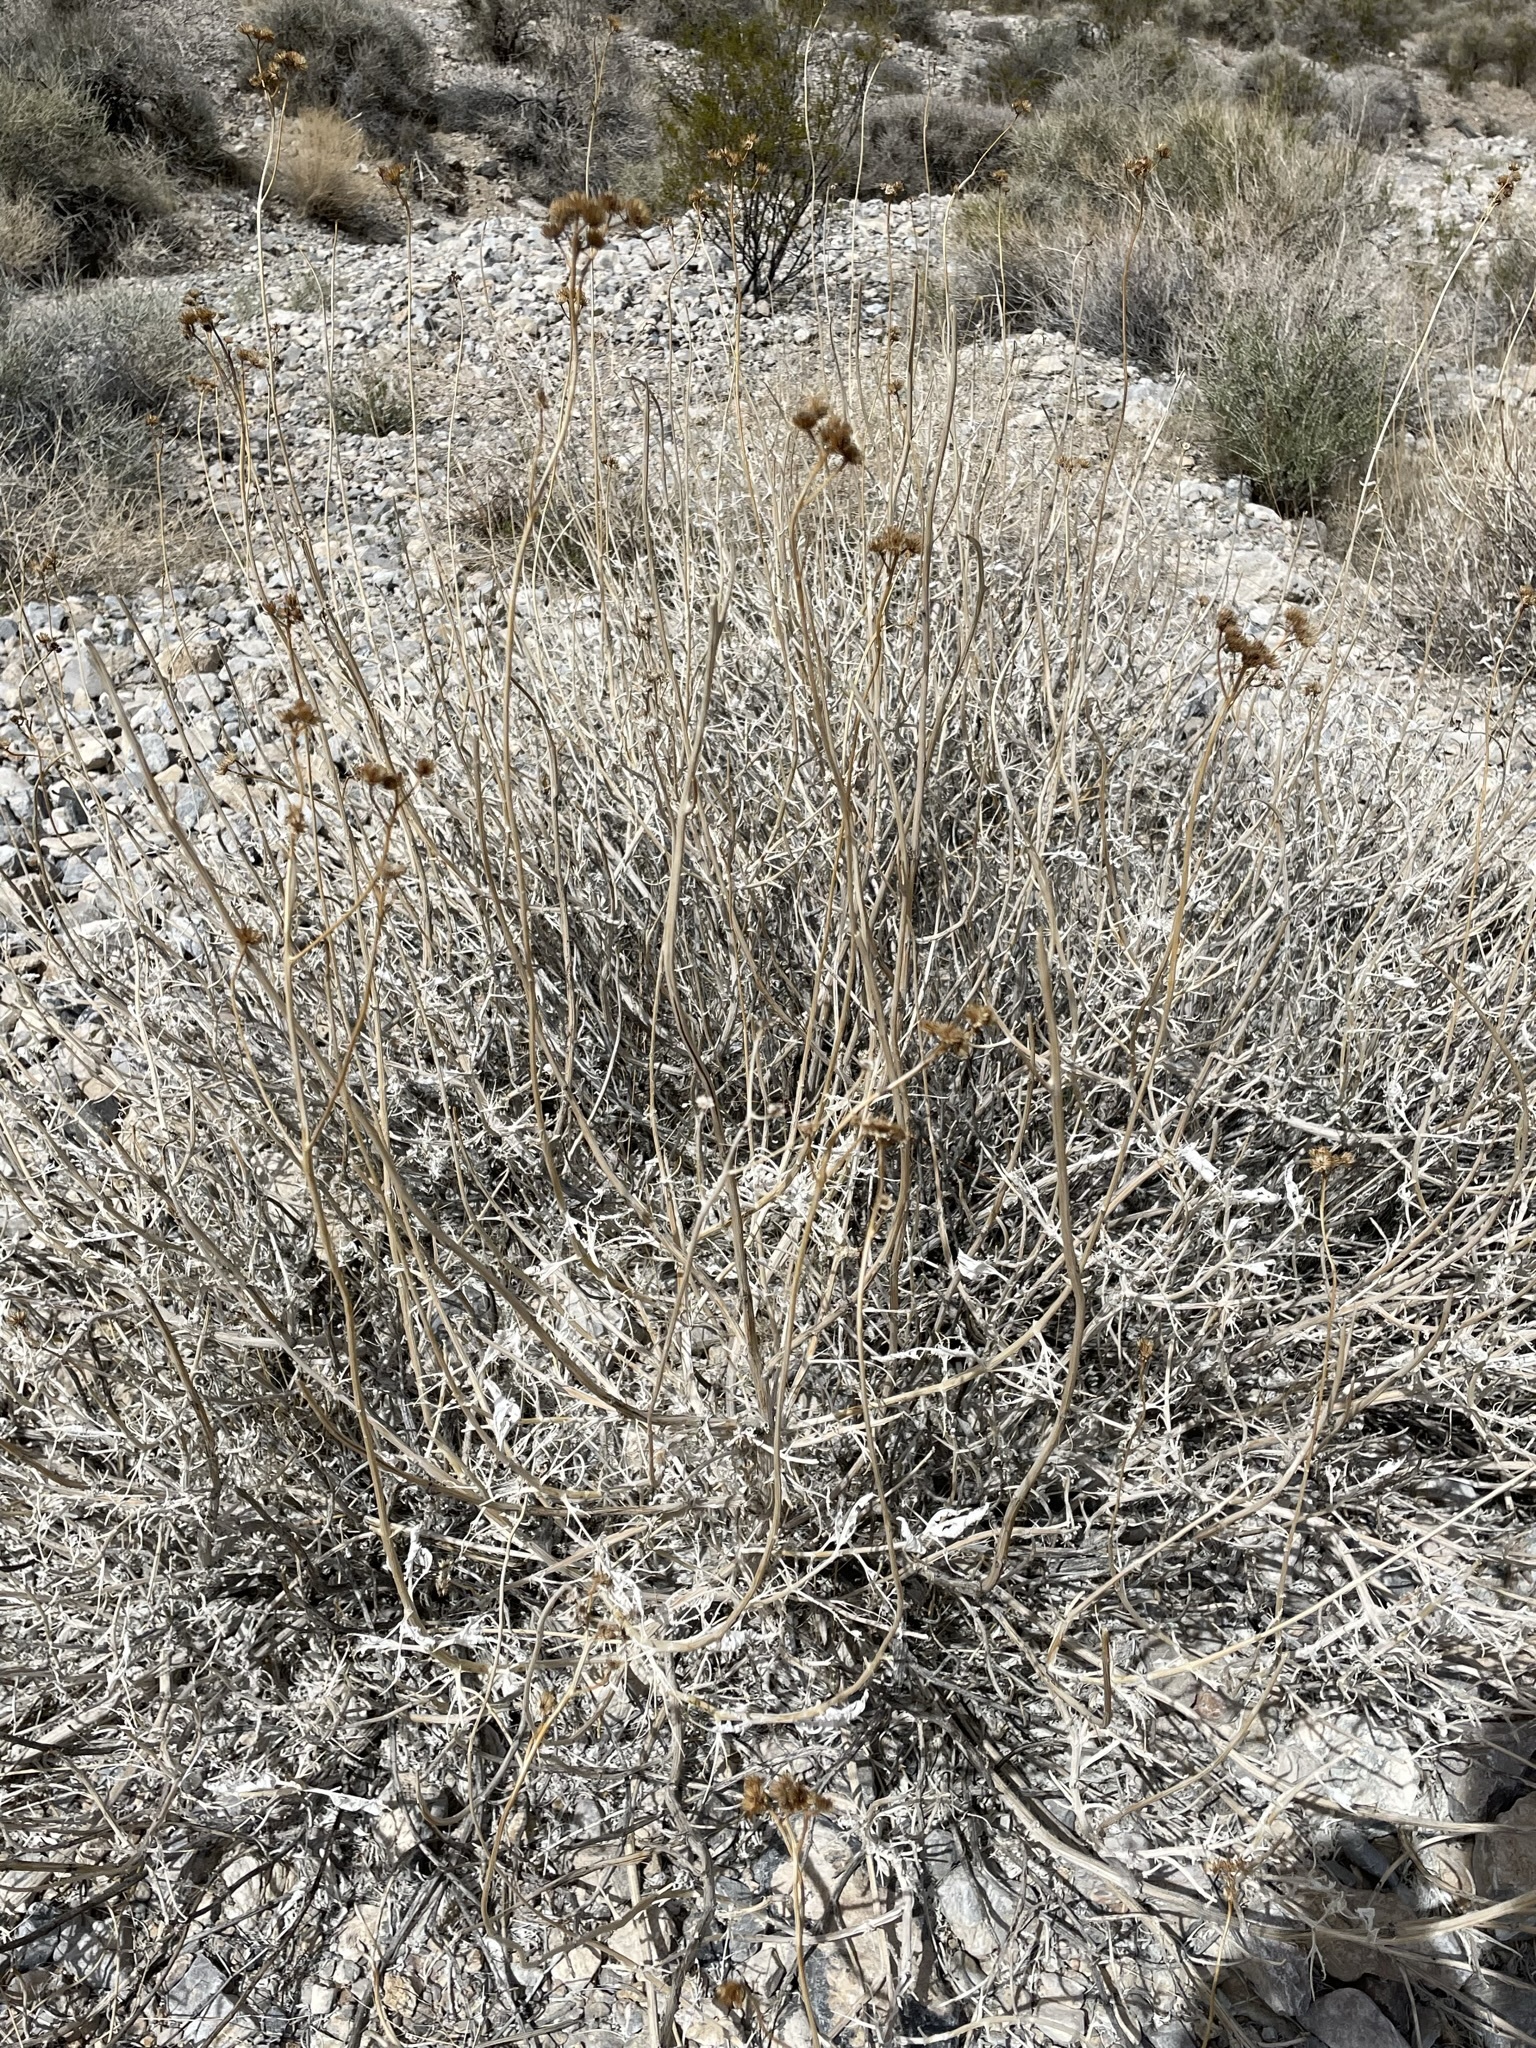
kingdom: Plantae
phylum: Tracheophyta
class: Magnoliopsida
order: Asterales
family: Asteraceae
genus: Bahiopsis
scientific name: Bahiopsis reticulata
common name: Death valley goldeneye
